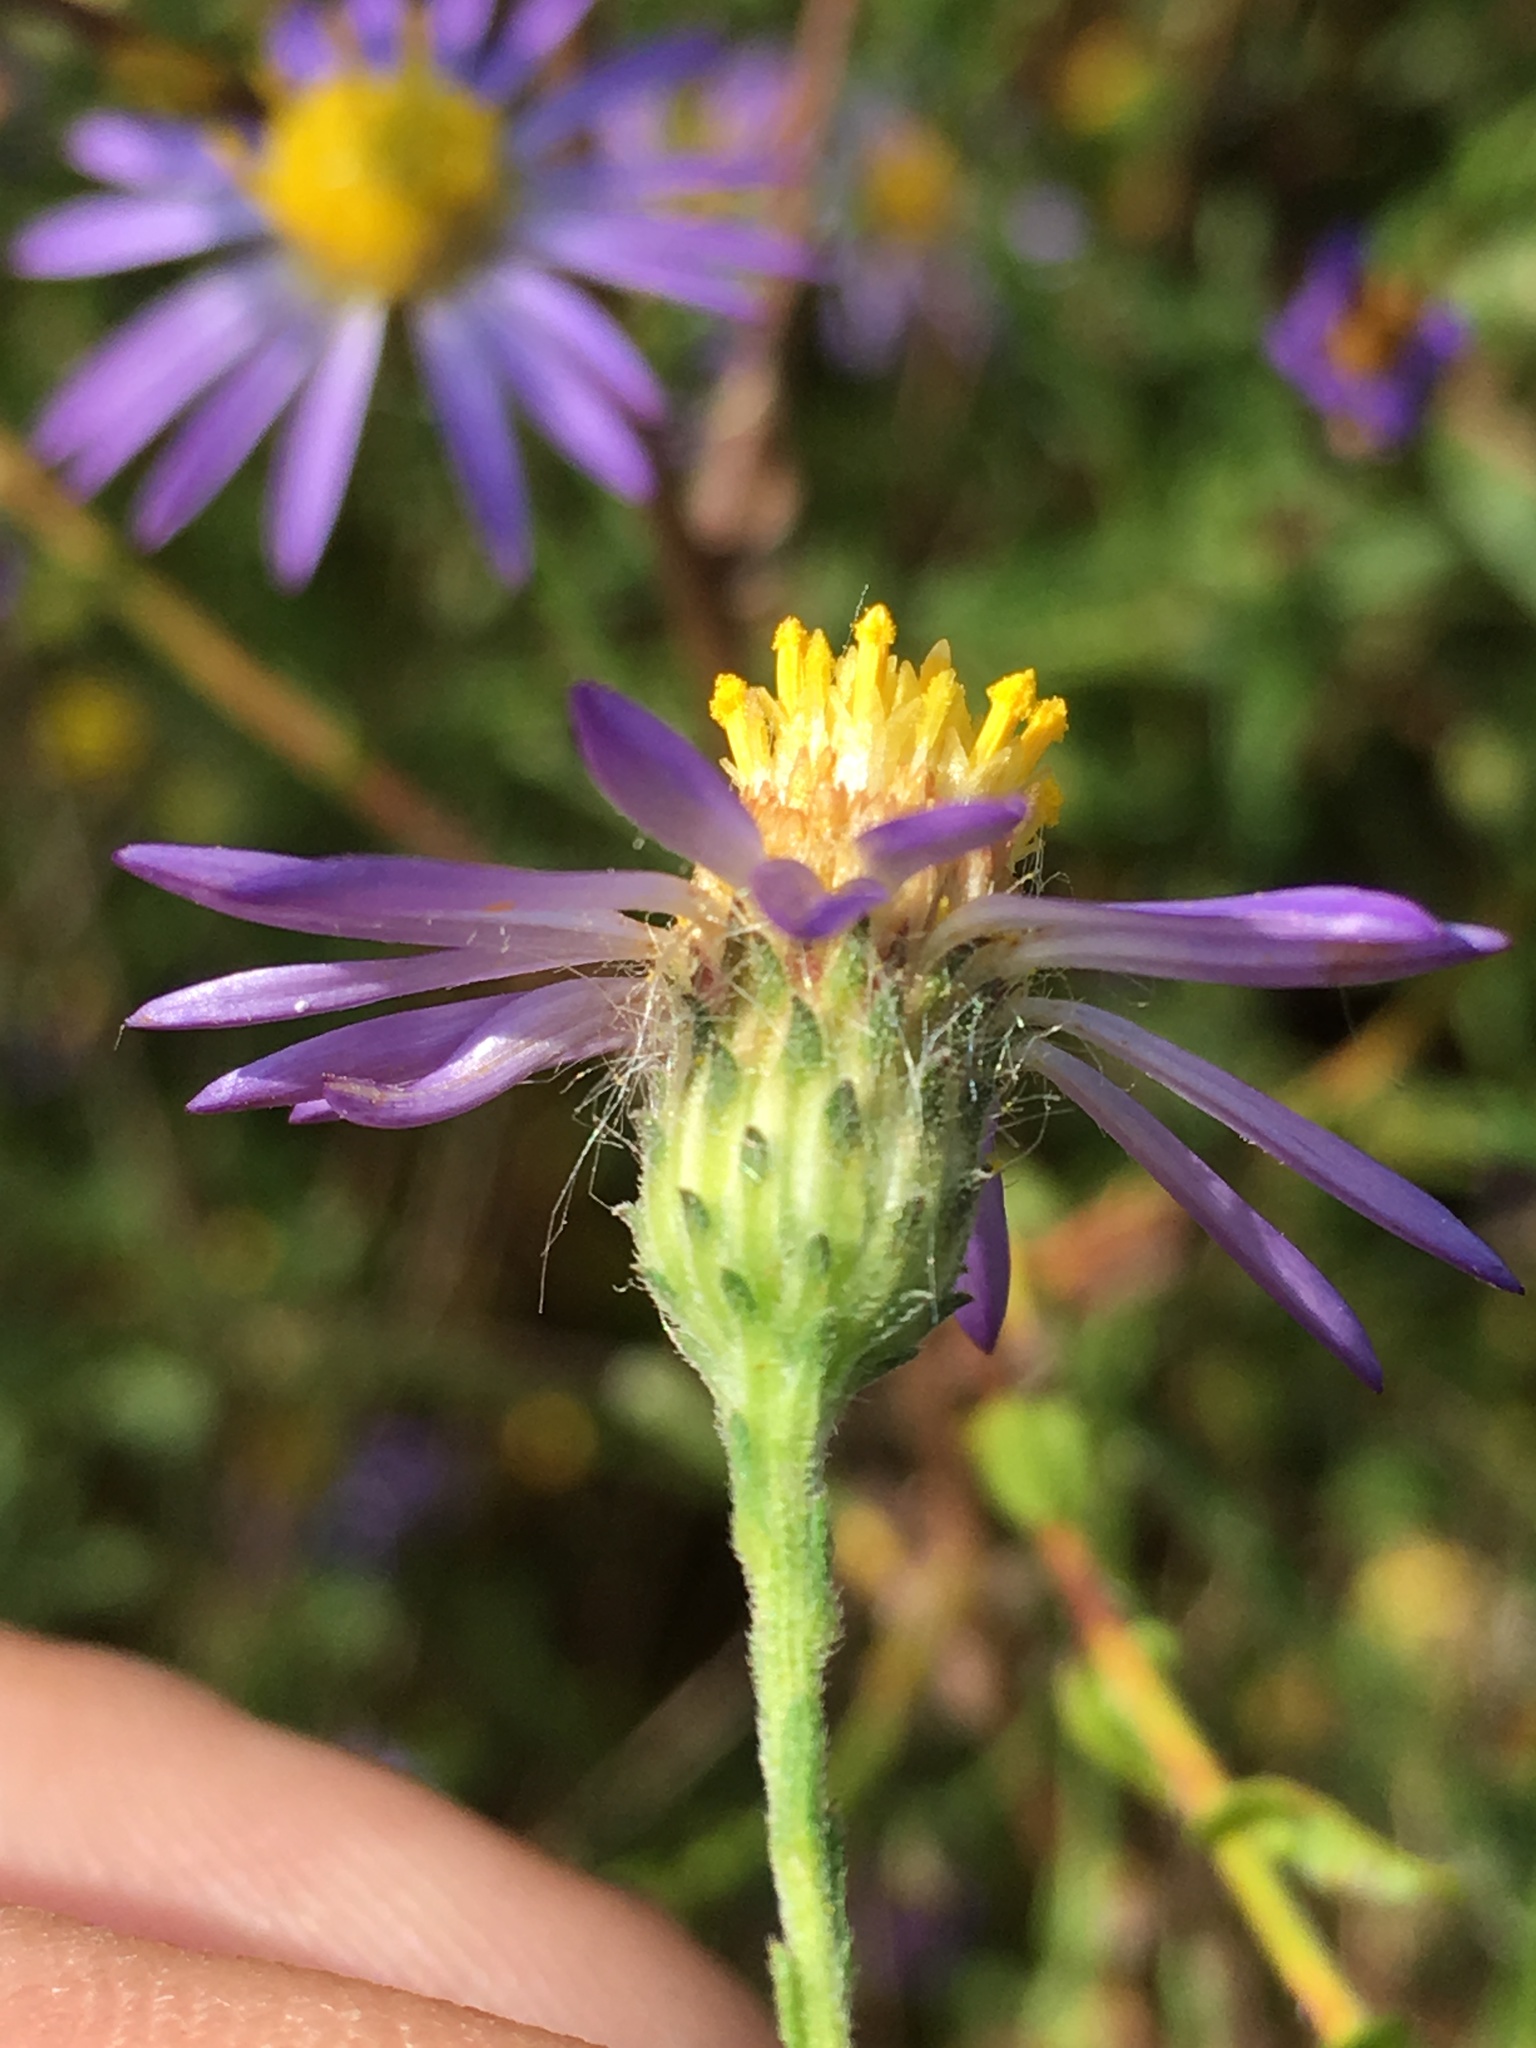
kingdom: Plantae
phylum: Tracheophyta
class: Magnoliopsida
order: Asterales
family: Asteraceae
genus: Symphyotrichum
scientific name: Symphyotrichum patens
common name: Late purple aster
